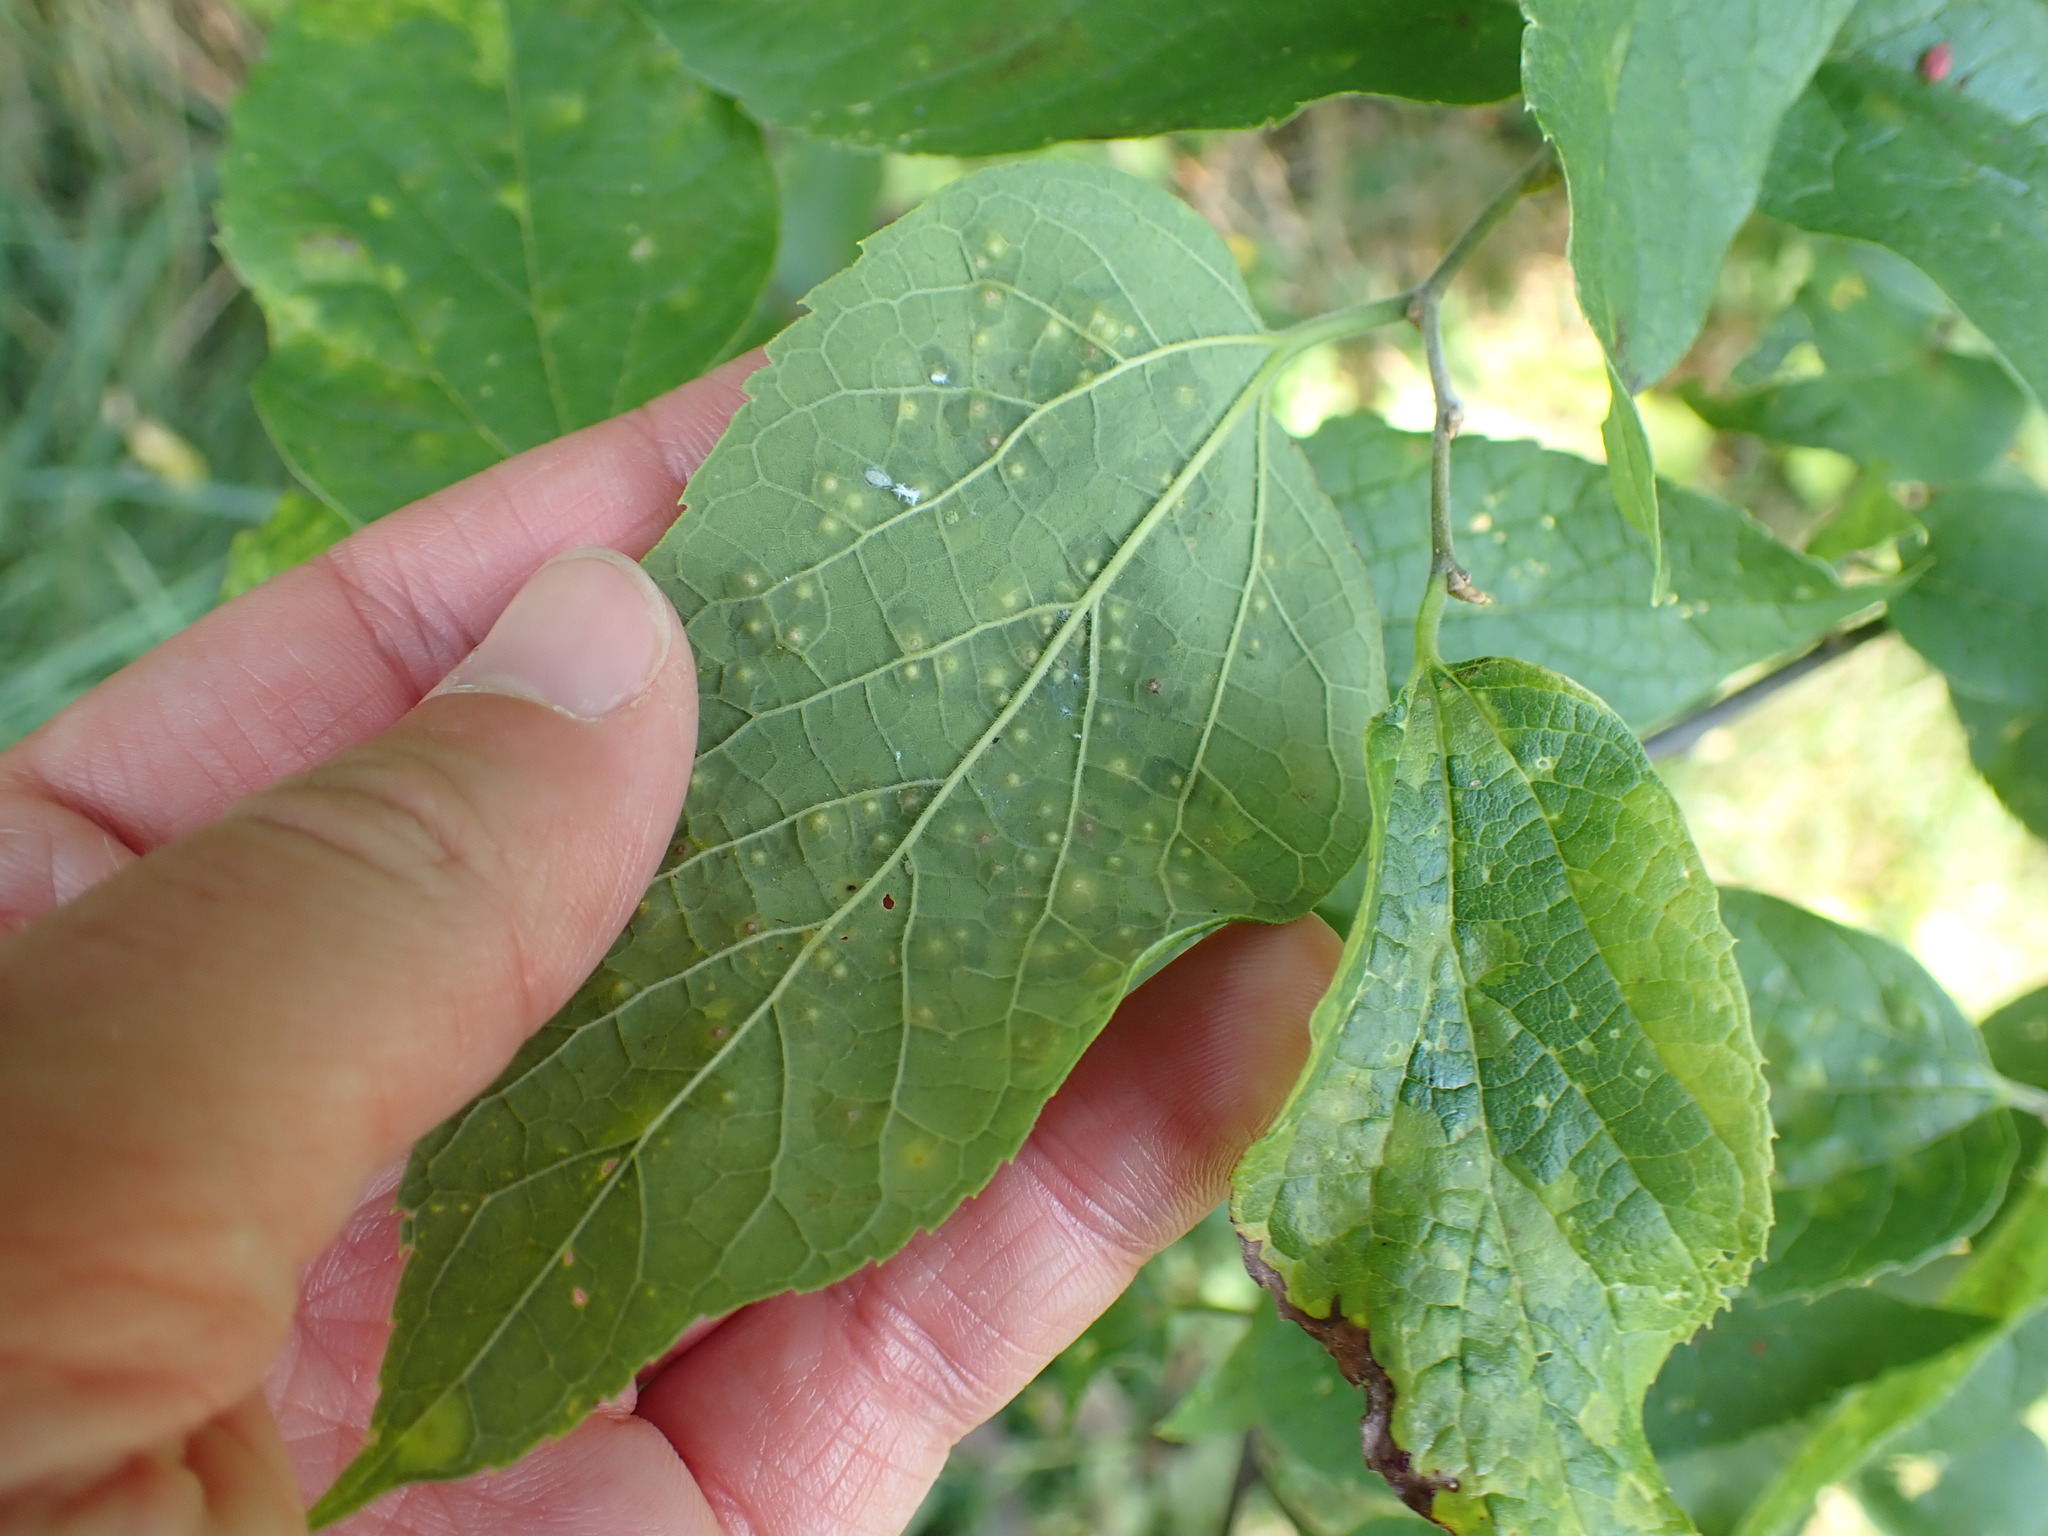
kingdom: Animalia
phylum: Arthropoda
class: Insecta
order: Hemiptera
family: Aphalaridae
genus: Pachypsylla
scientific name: Pachypsylla celtidisvesicula
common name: Hackberry blister gall psyllid
